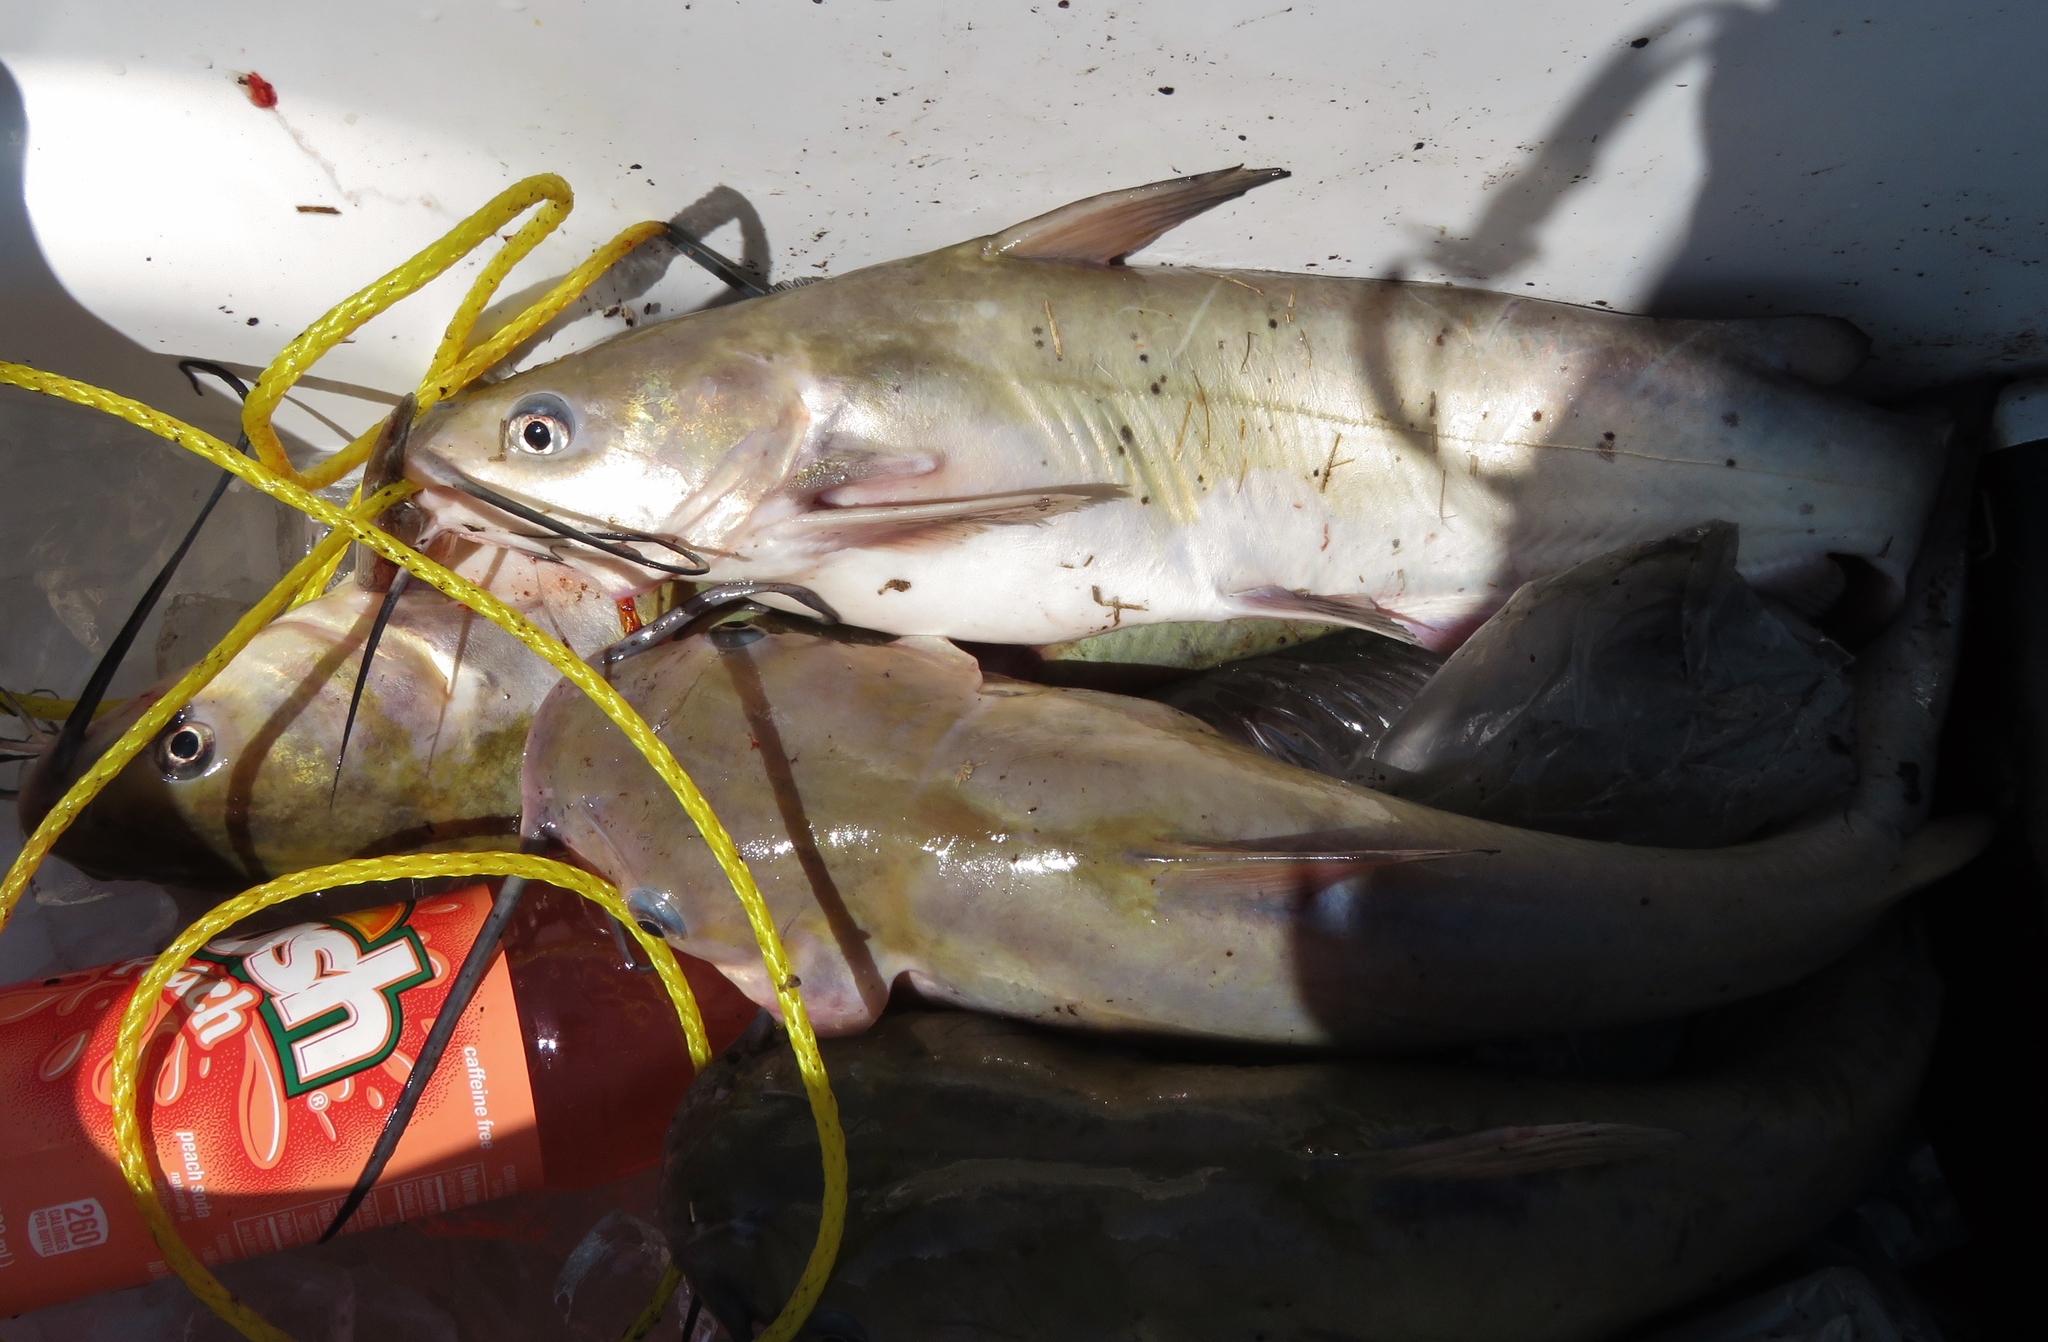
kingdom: Animalia
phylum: Chordata
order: Siluriformes
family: Ictaluridae
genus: Ictalurus
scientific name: Ictalurus punctatus
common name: Channel catfish
